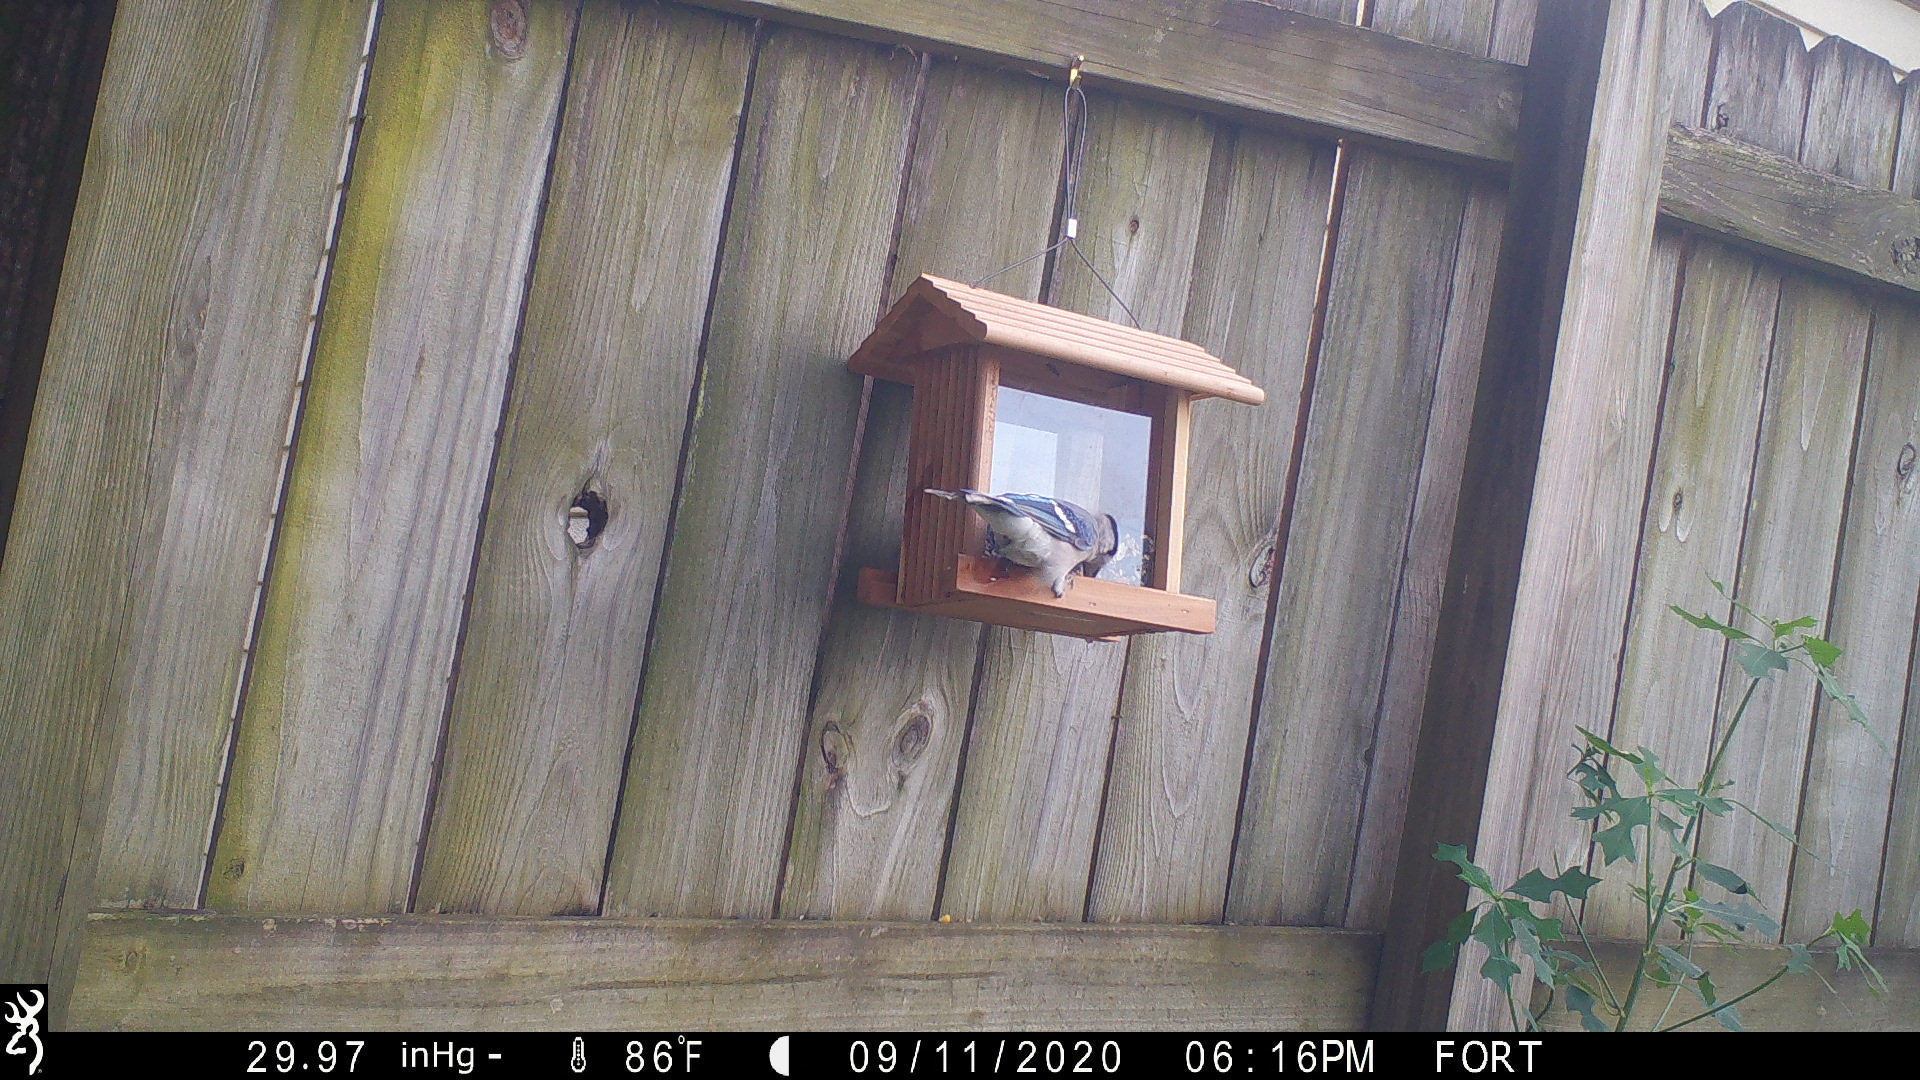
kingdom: Animalia
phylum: Chordata
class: Aves
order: Passeriformes
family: Corvidae
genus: Cyanocitta
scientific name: Cyanocitta cristata
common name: Blue jay
